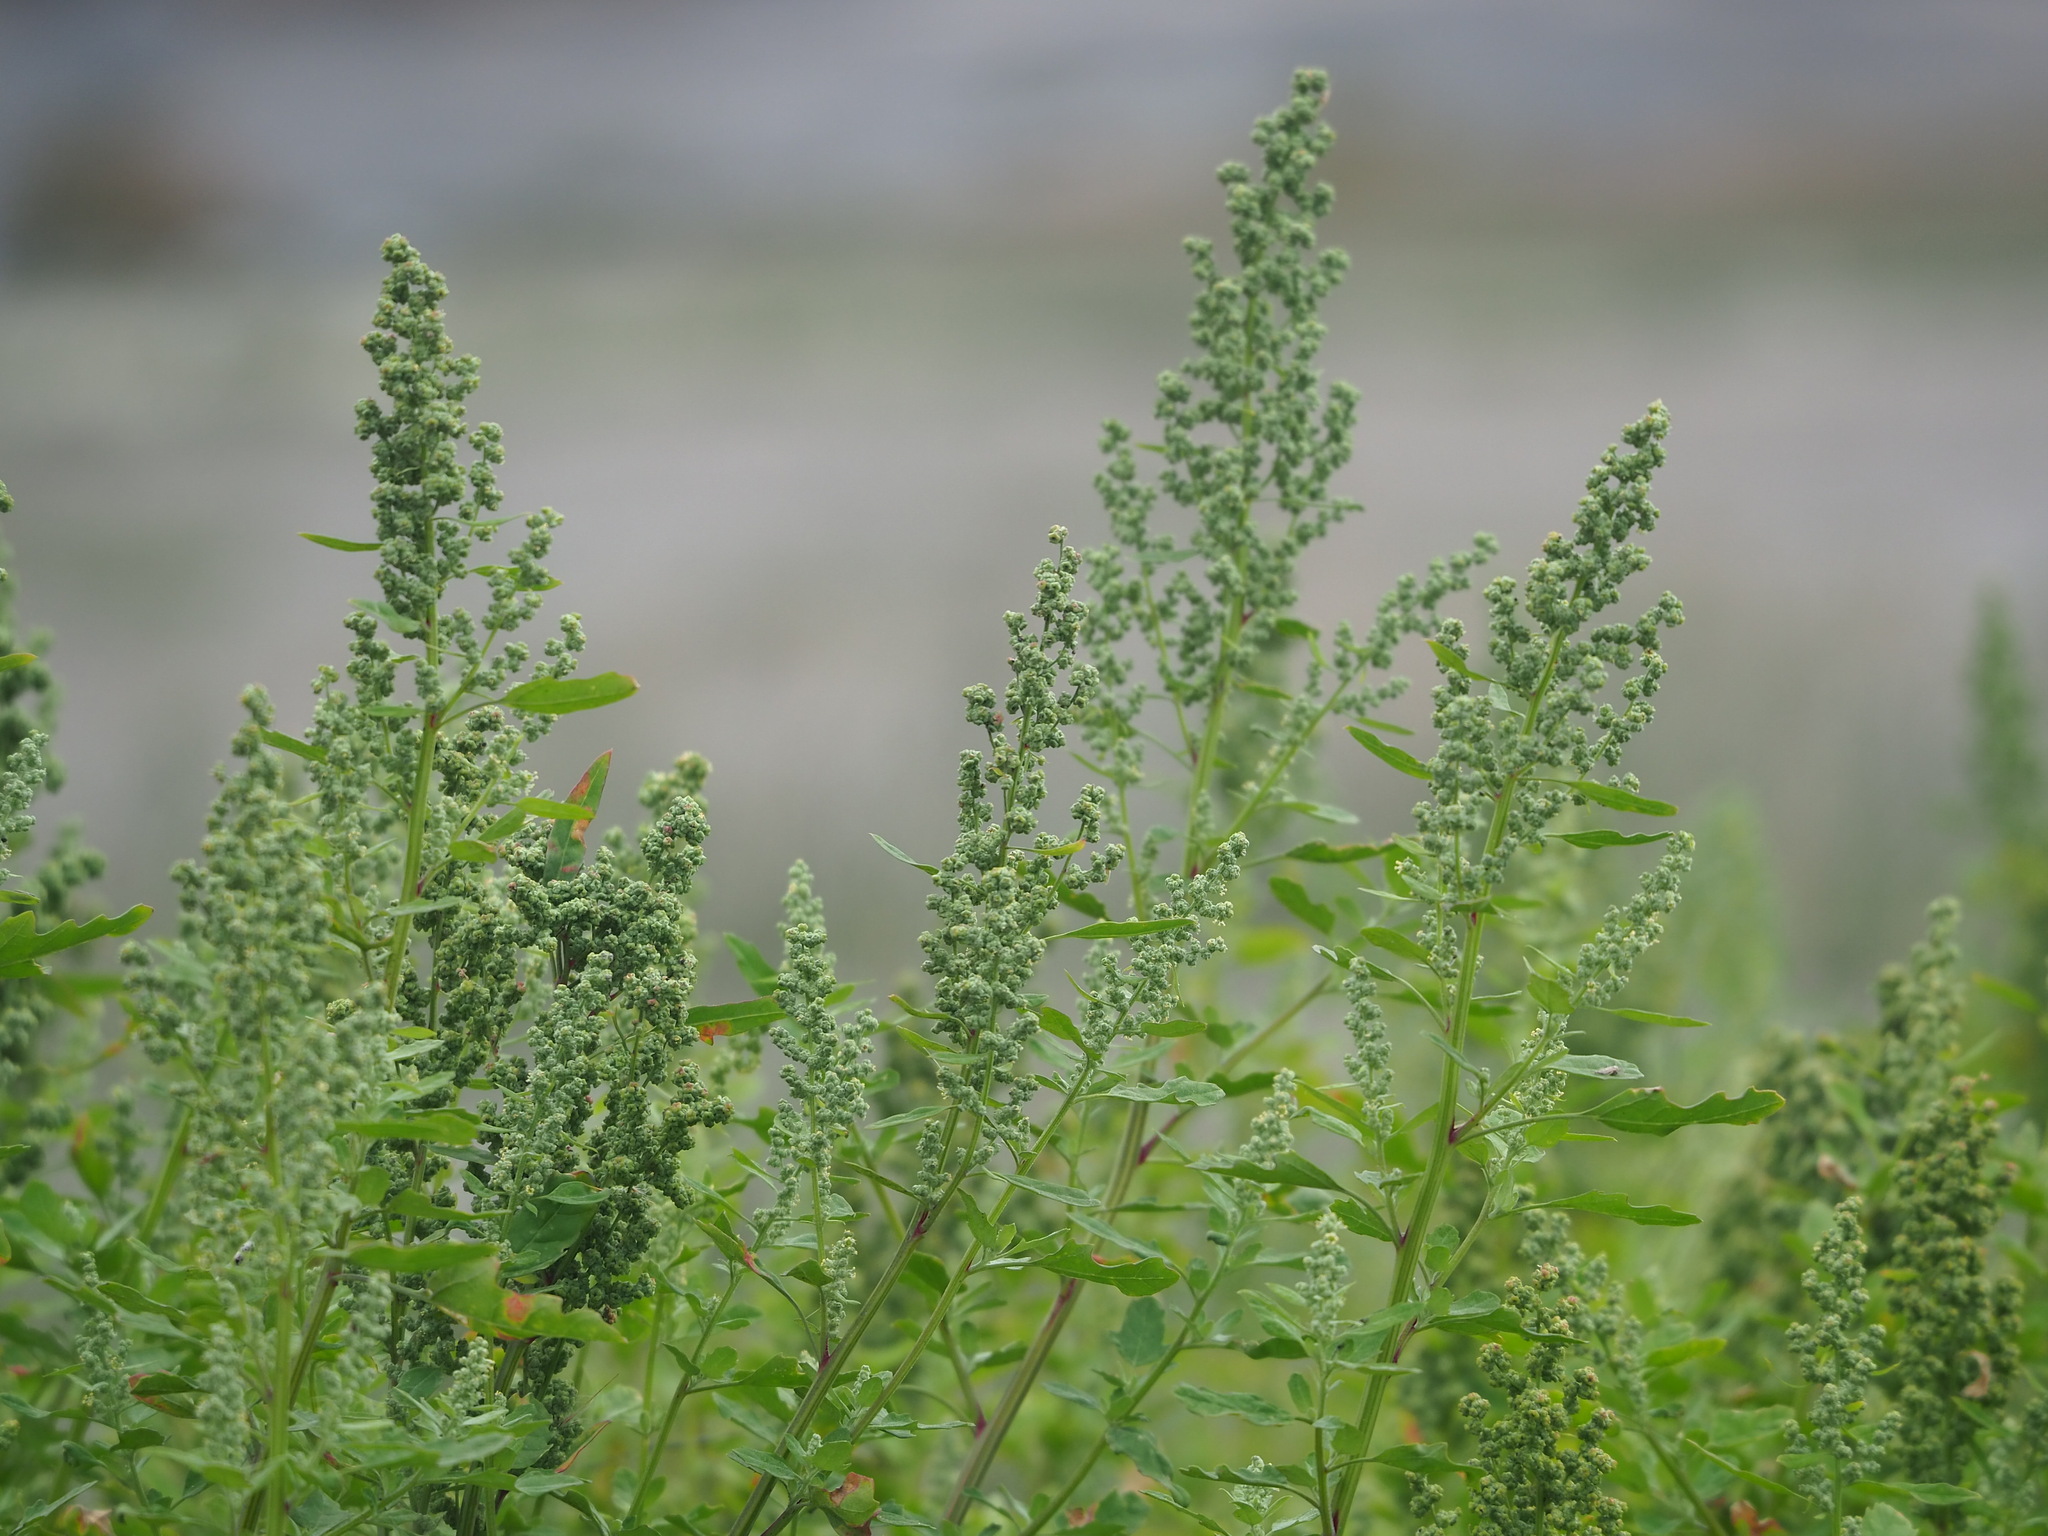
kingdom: Plantae
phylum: Tracheophyta
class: Magnoliopsida
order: Caryophyllales
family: Amaranthaceae
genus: Chenopodium
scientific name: Chenopodium ficifolium
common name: Fig-leaved goosefoot
